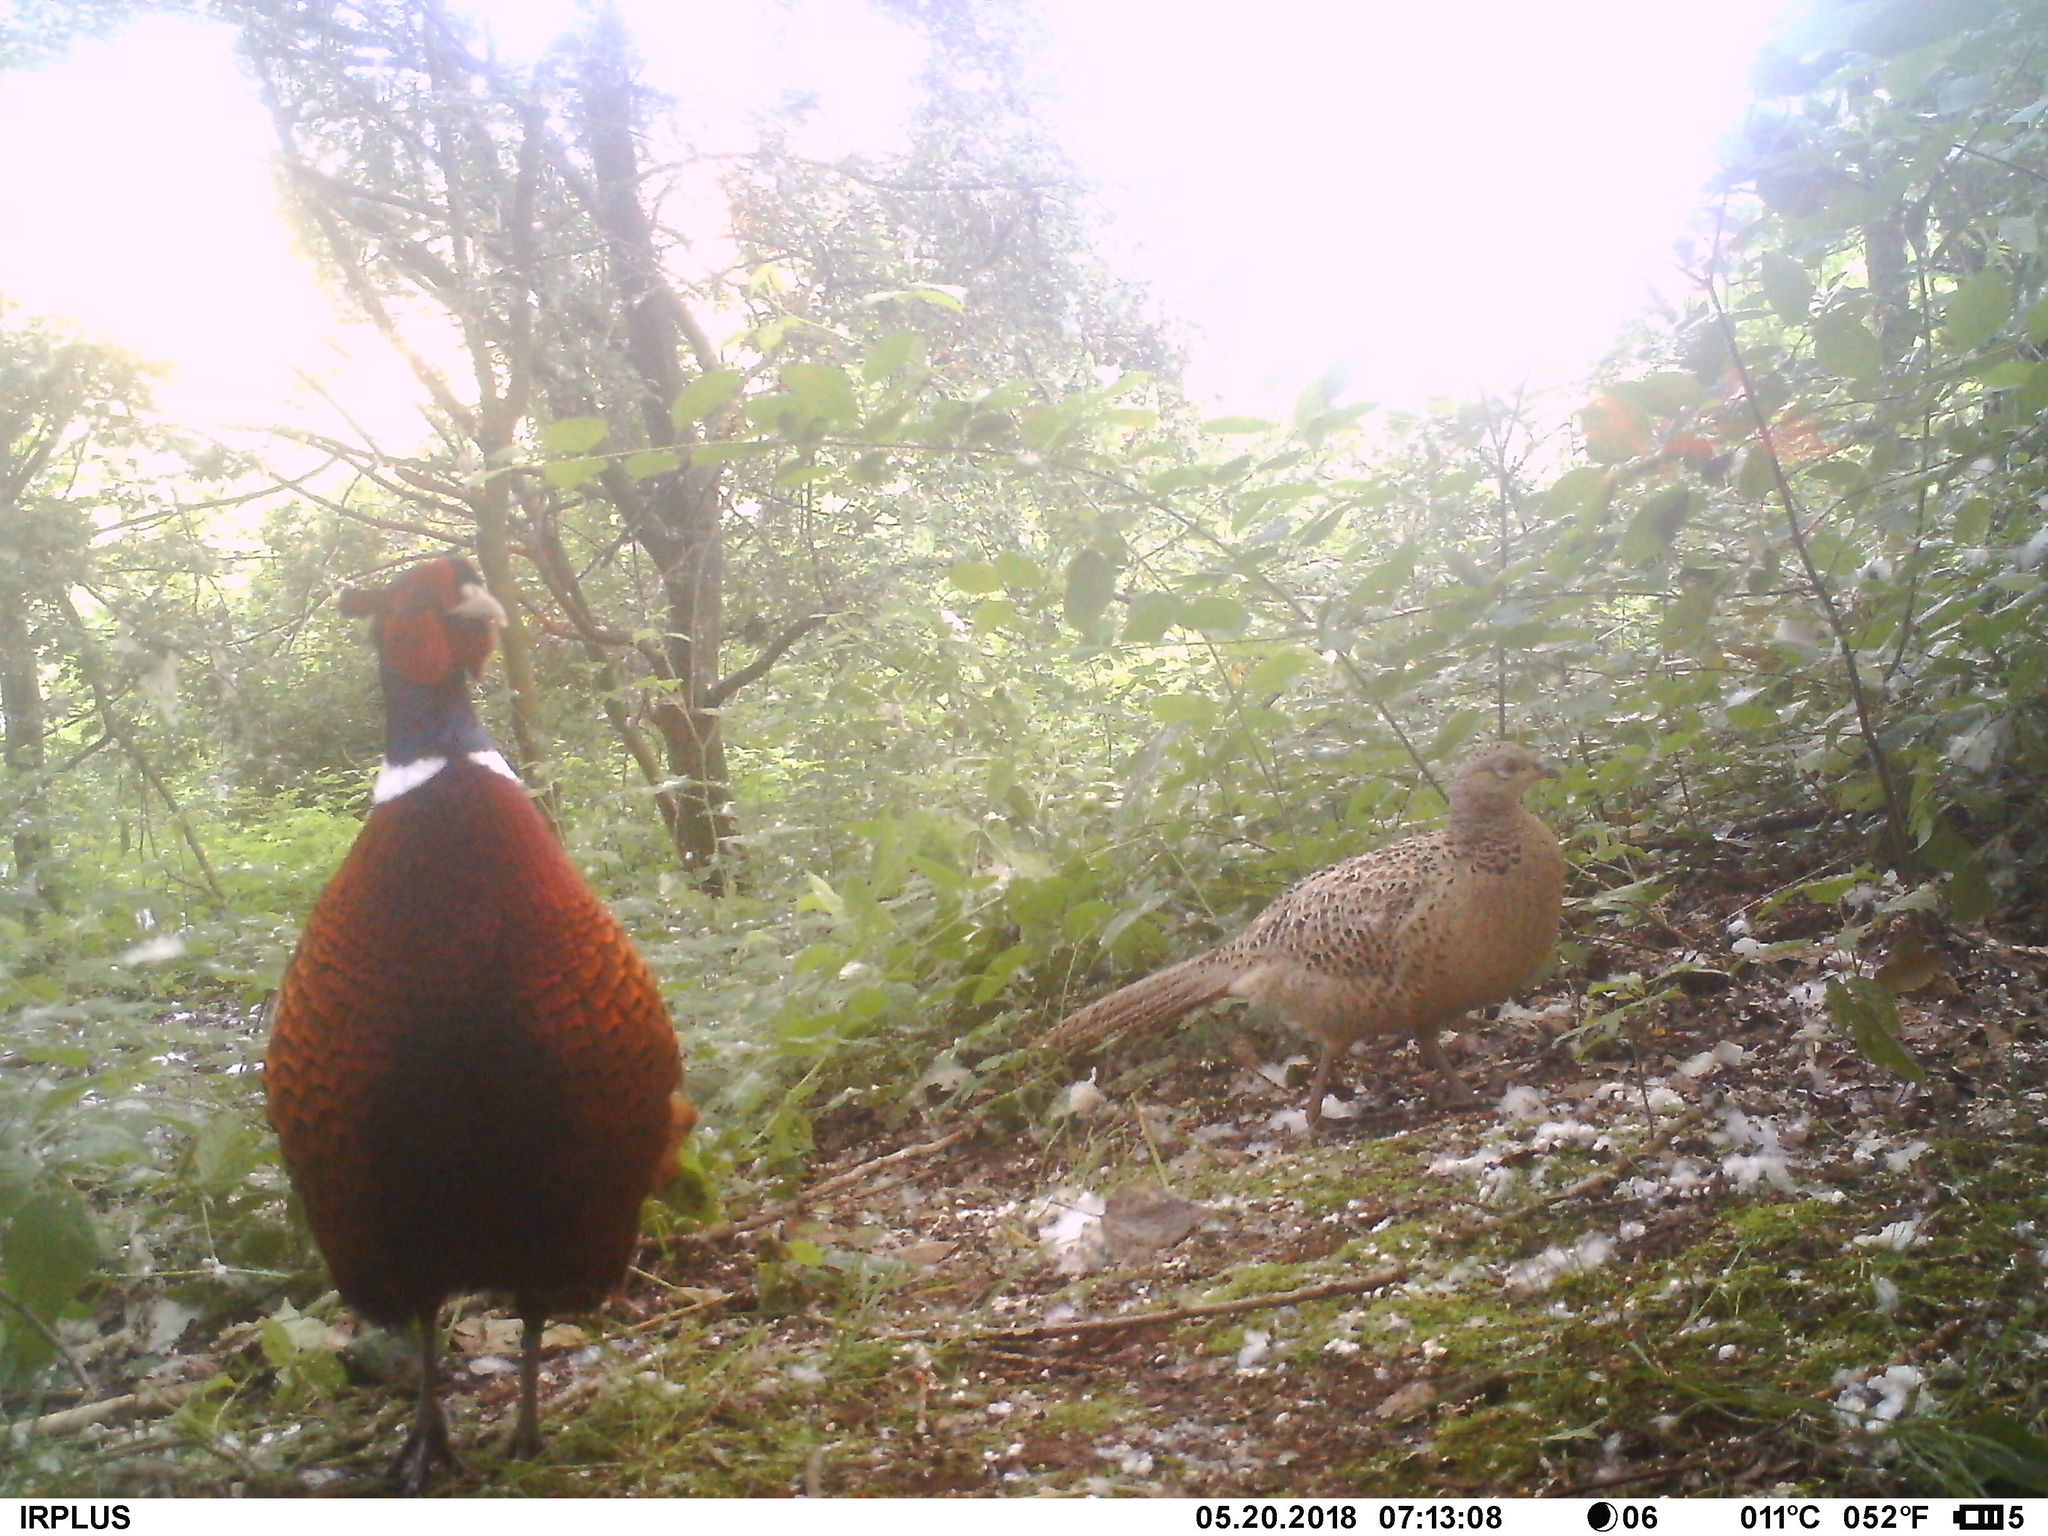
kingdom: Animalia
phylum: Chordata
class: Aves
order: Galliformes
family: Phasianidae
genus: Phasianus
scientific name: Phasianus colchicus
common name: Common pheasant
